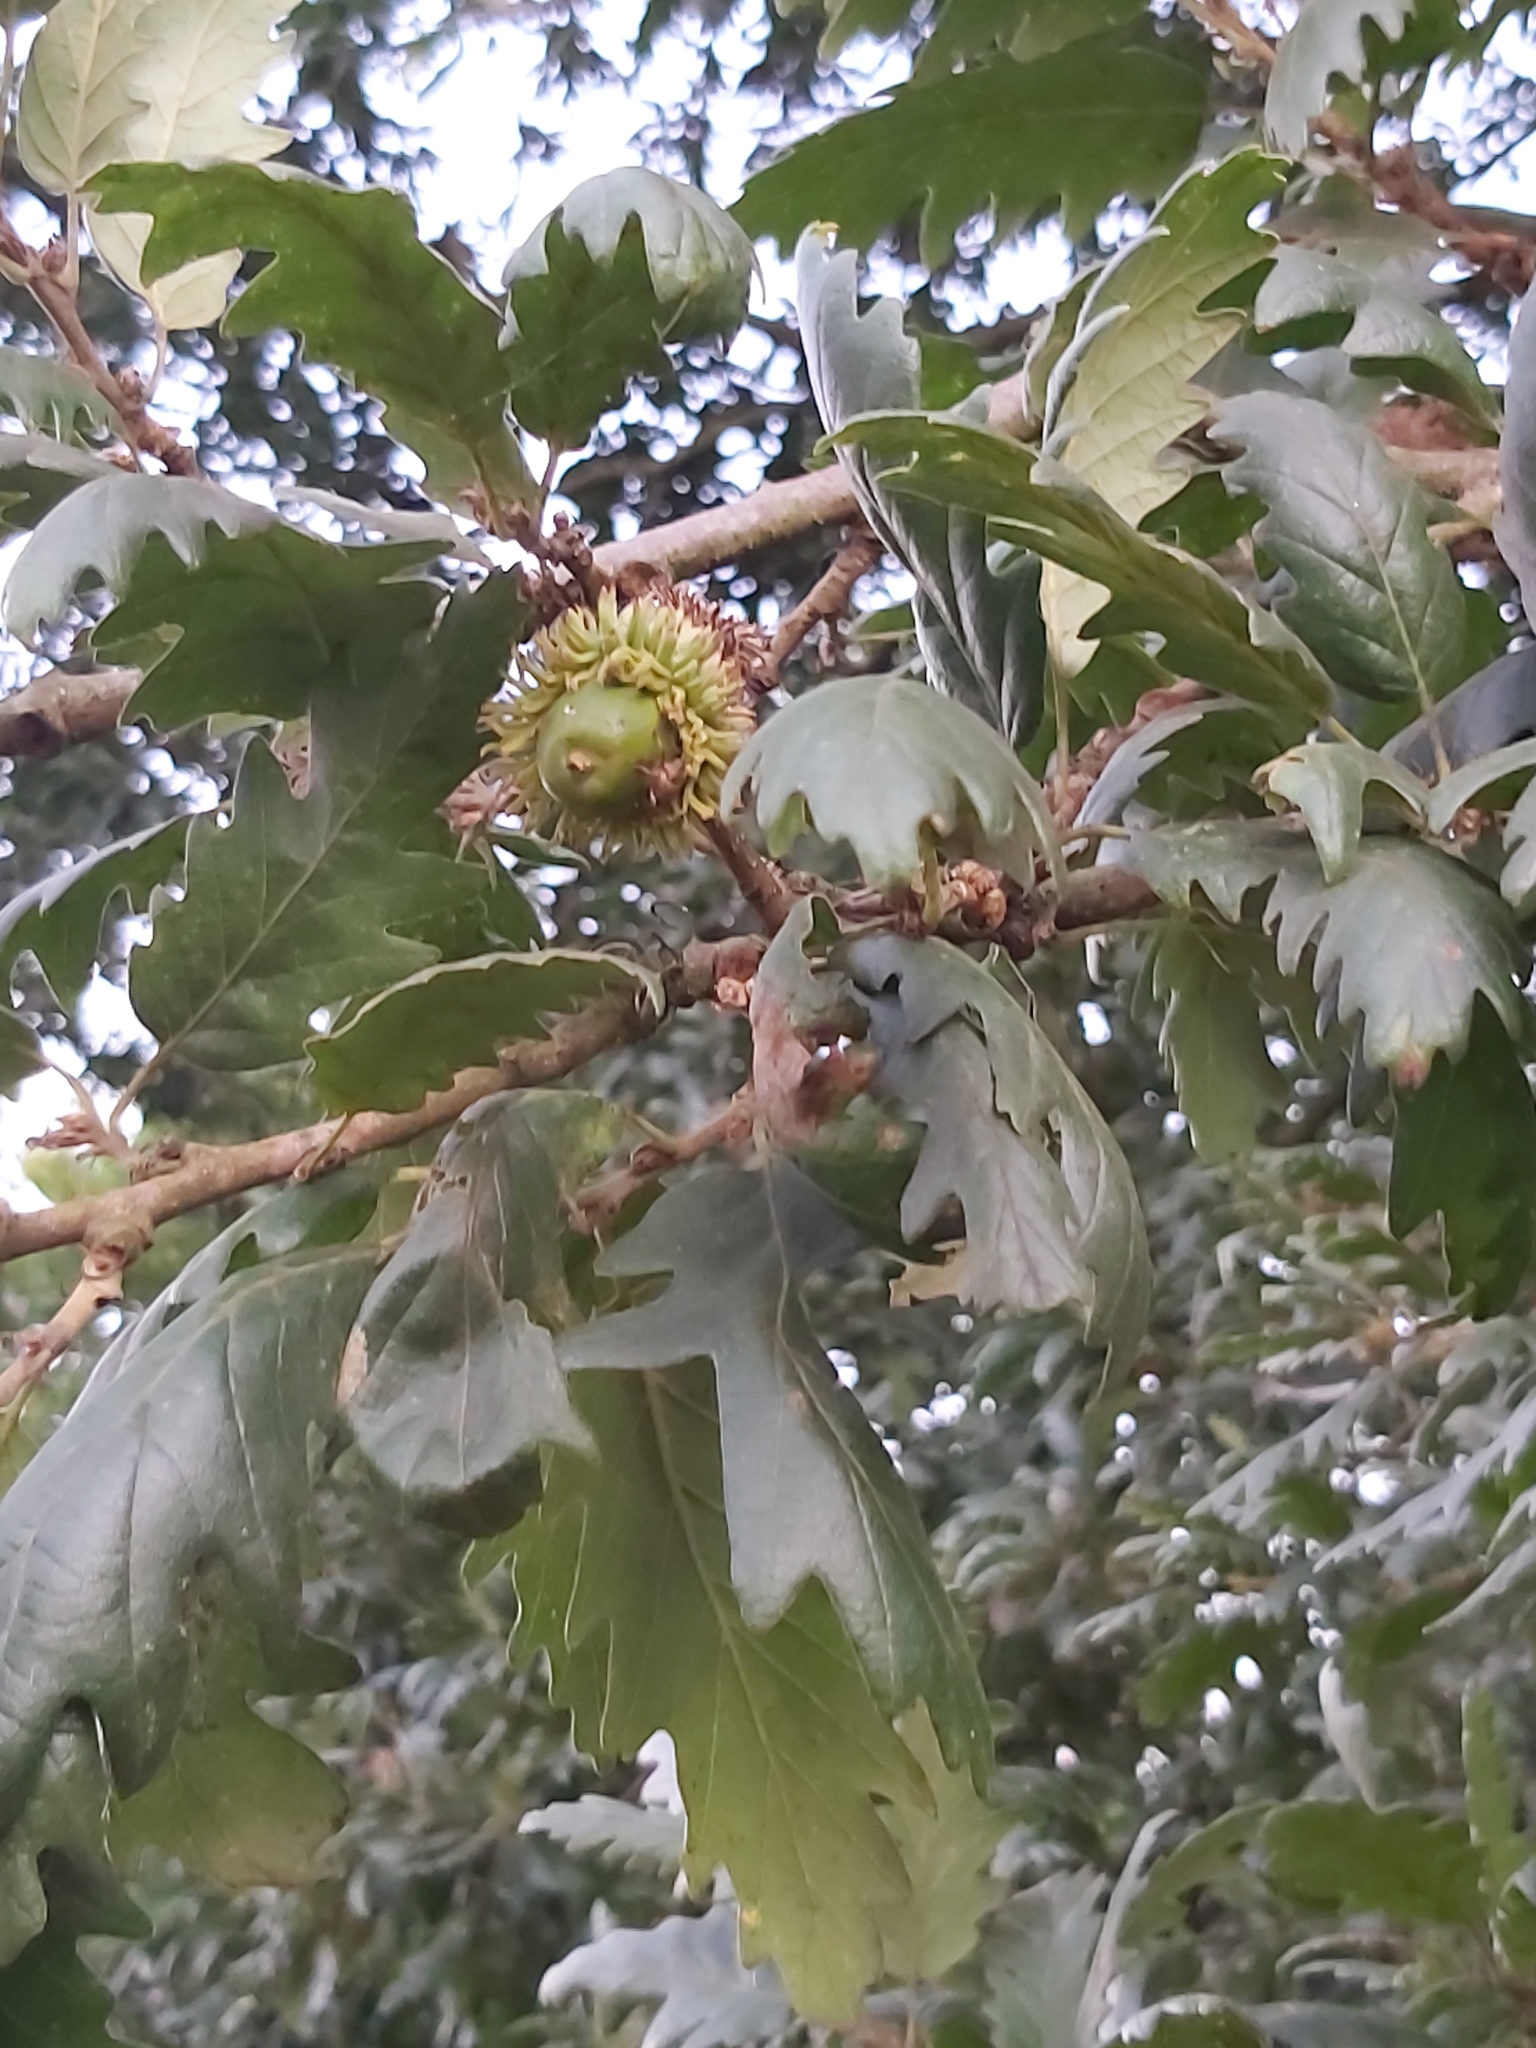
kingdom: Plantae
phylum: Tracheophyta
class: Magnoliopsida
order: Fagales
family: Fagaceae
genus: Quercus
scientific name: Quercus cerris
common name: Turkey oak
